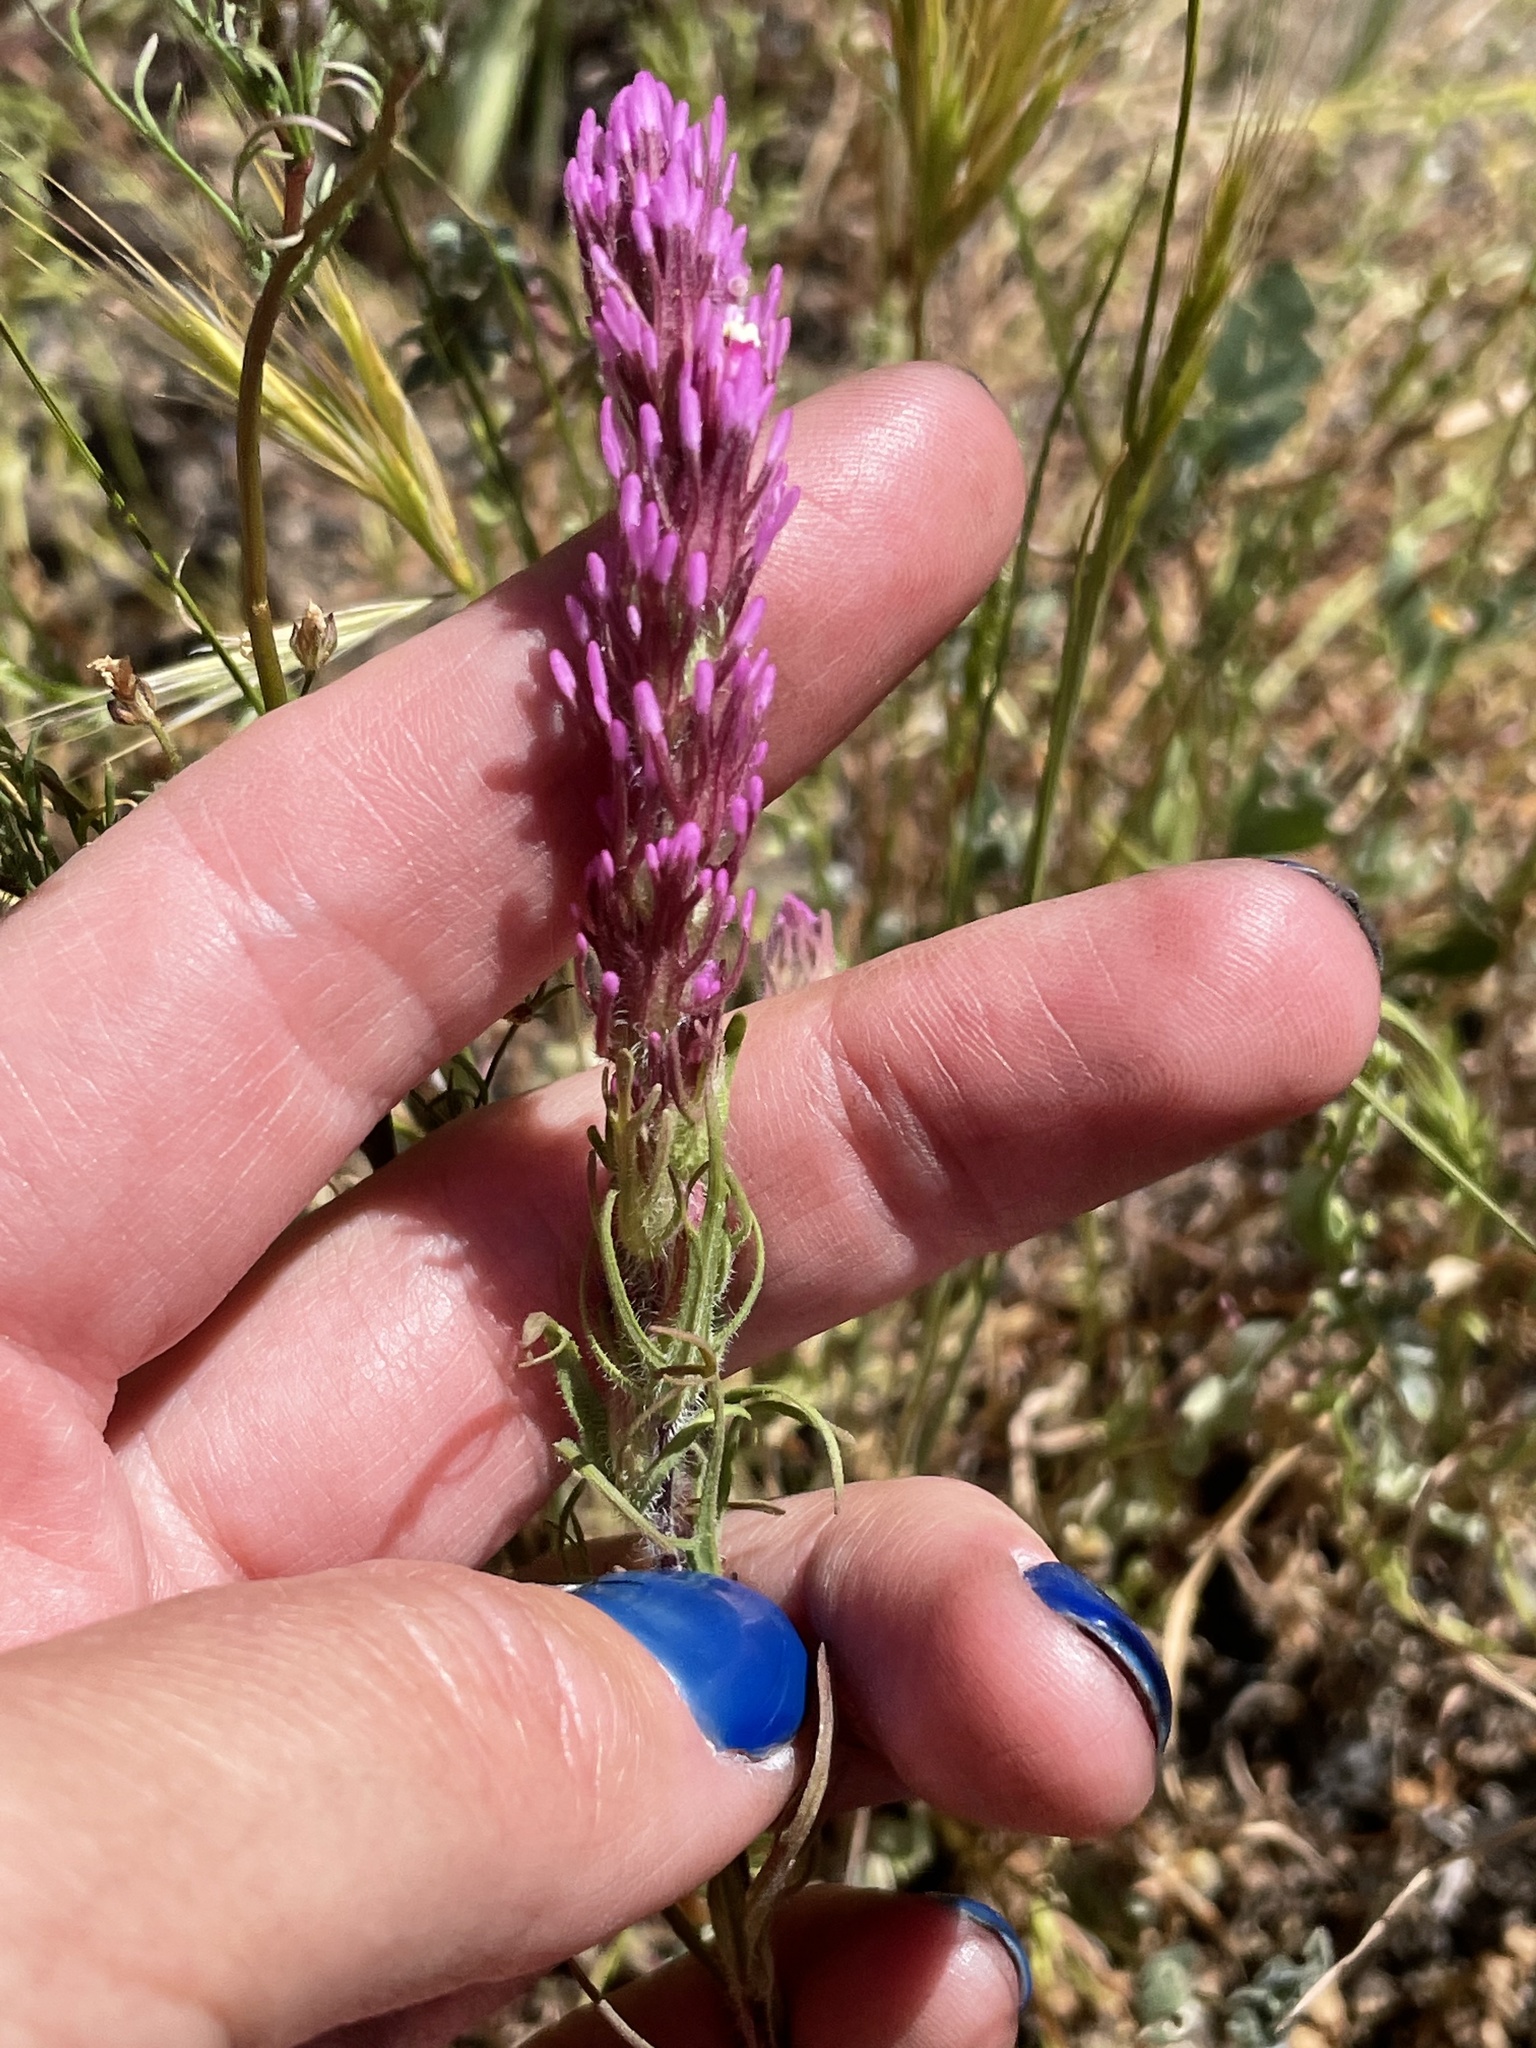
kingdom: Plantae
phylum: Tracheophyta
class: Magnoliopsida
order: Lamiales
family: Orobanchaceae
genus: Castilleja
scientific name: Castilleja exserta
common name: Purple owl-clover
